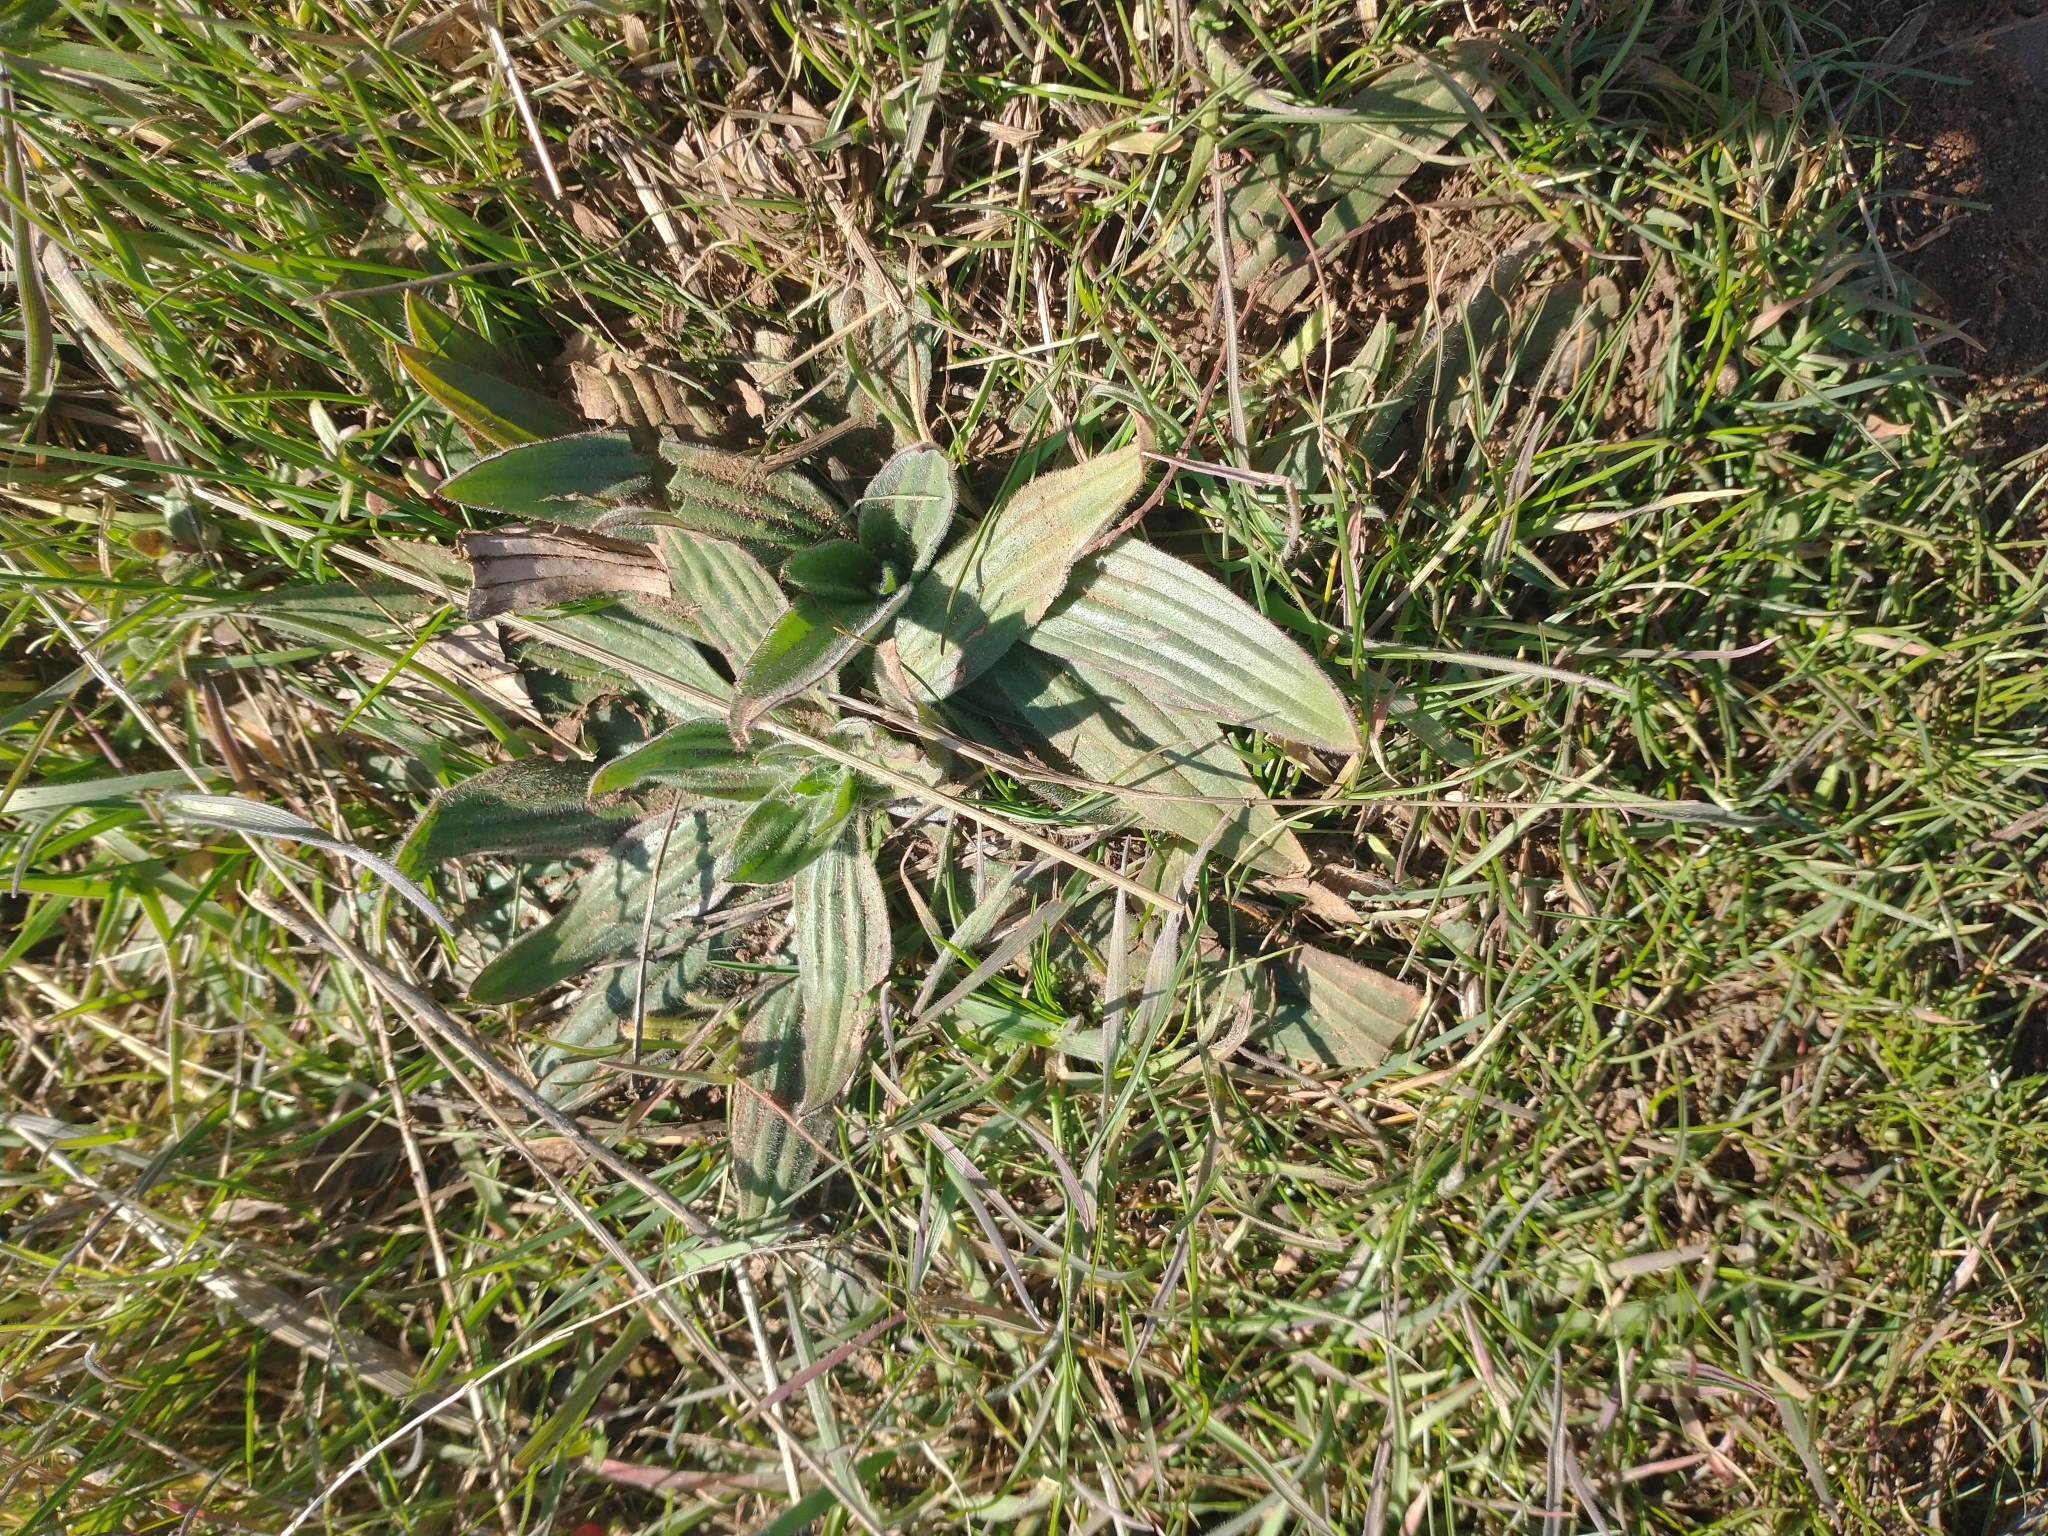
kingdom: Plantae
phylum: Tracheophyta
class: Magnoliopsida
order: Lamiales
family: Plantaginaceae
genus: Plantago
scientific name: Plantago lanceolata
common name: Ribwort plantain
